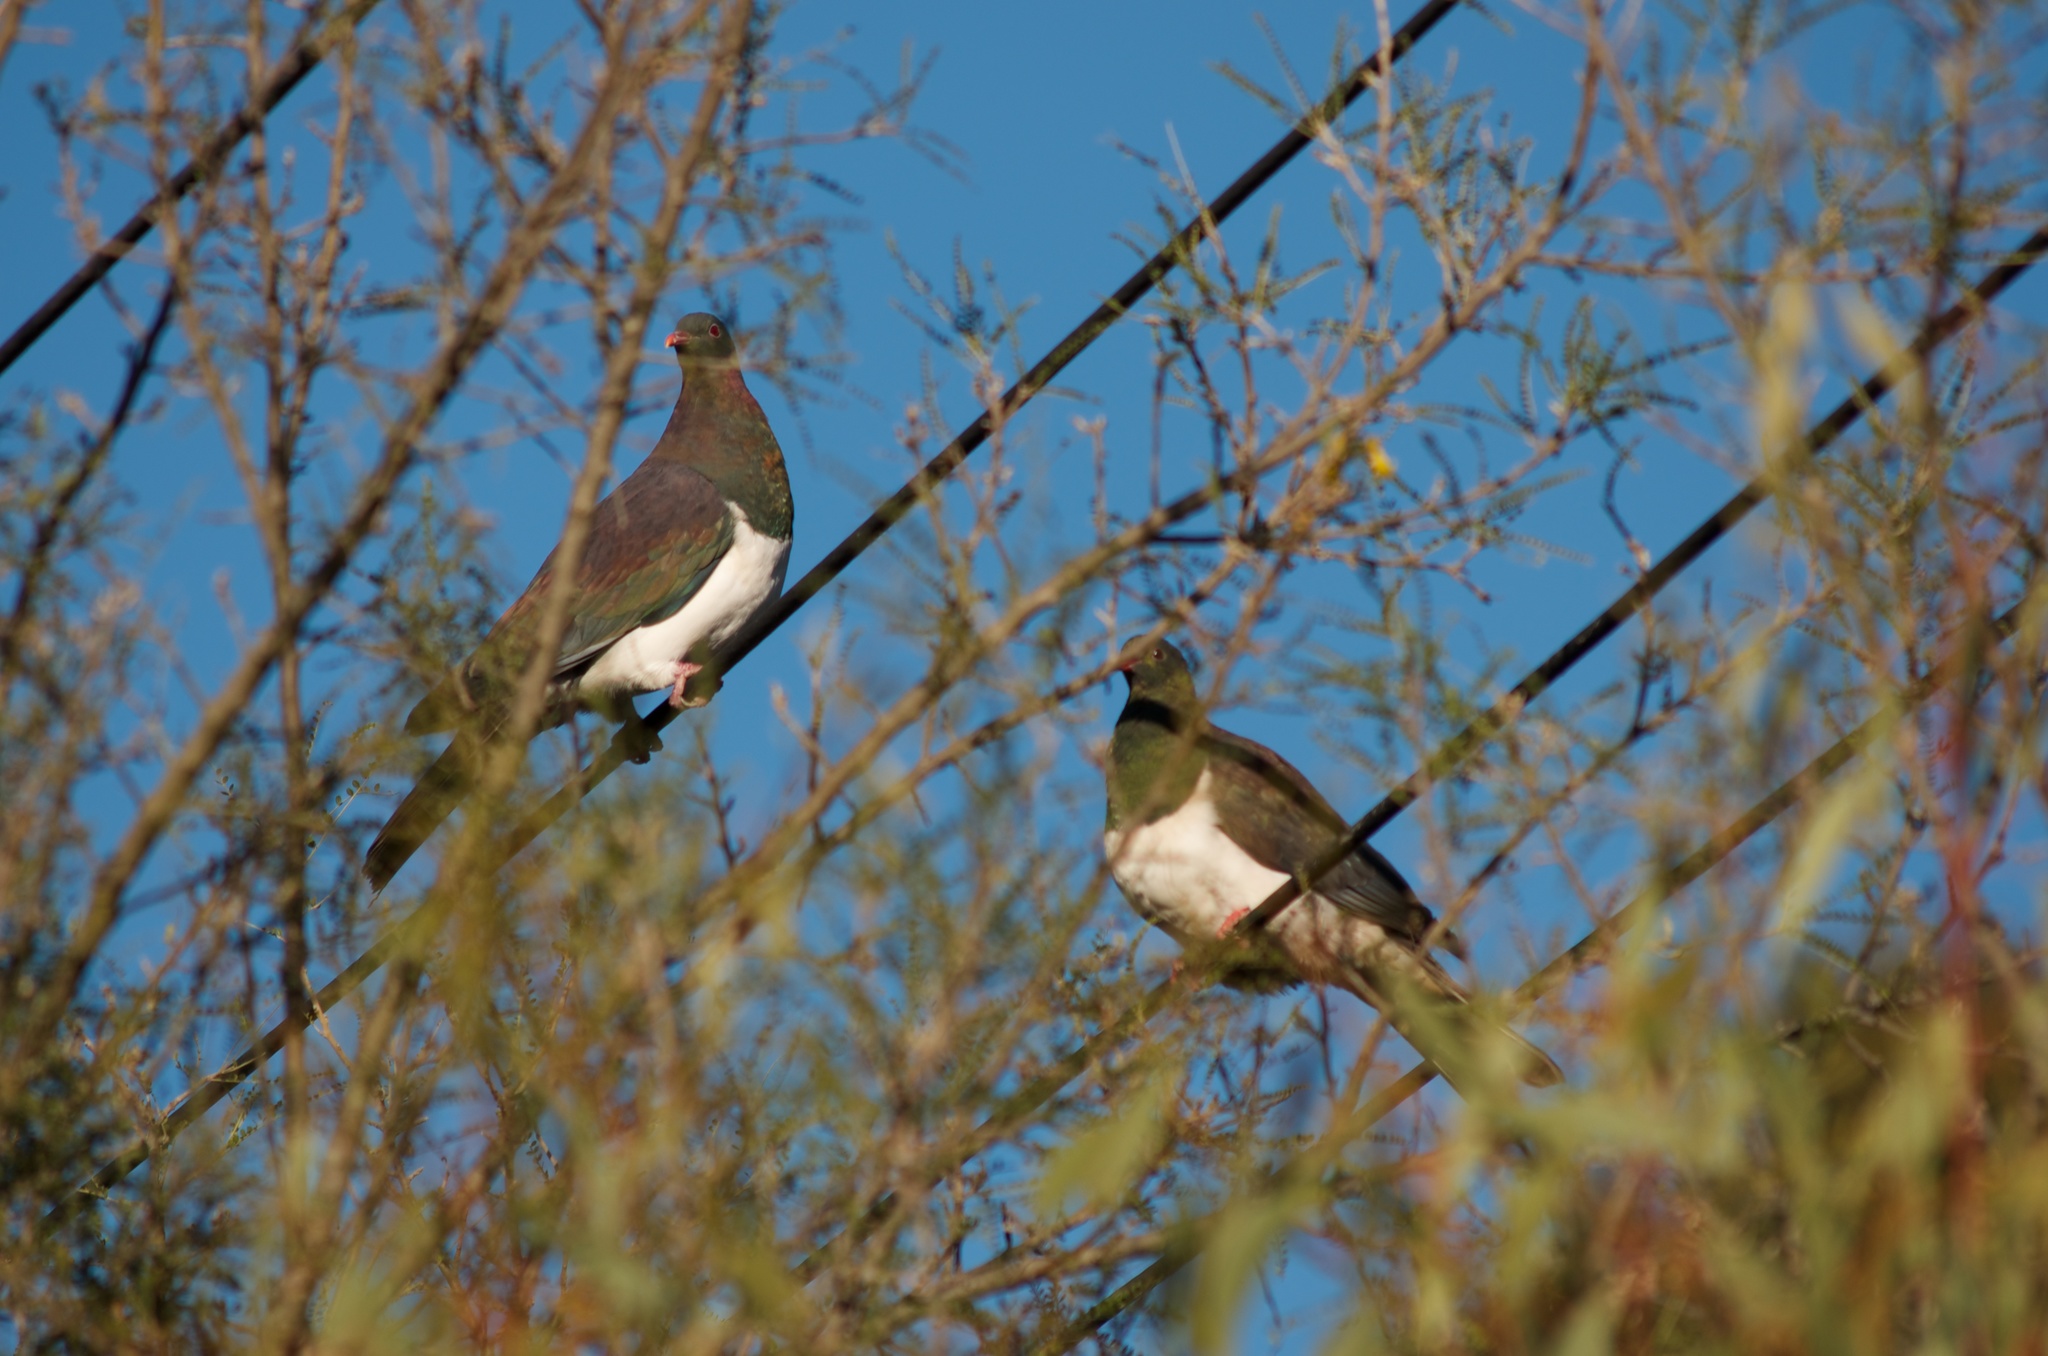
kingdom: Animalia
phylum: Chordata
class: Aves
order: Columbiformes
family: Columbidae
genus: Hemiphaga
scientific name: Hemiphaga novaeseelandiae
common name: New zealand pigeon
